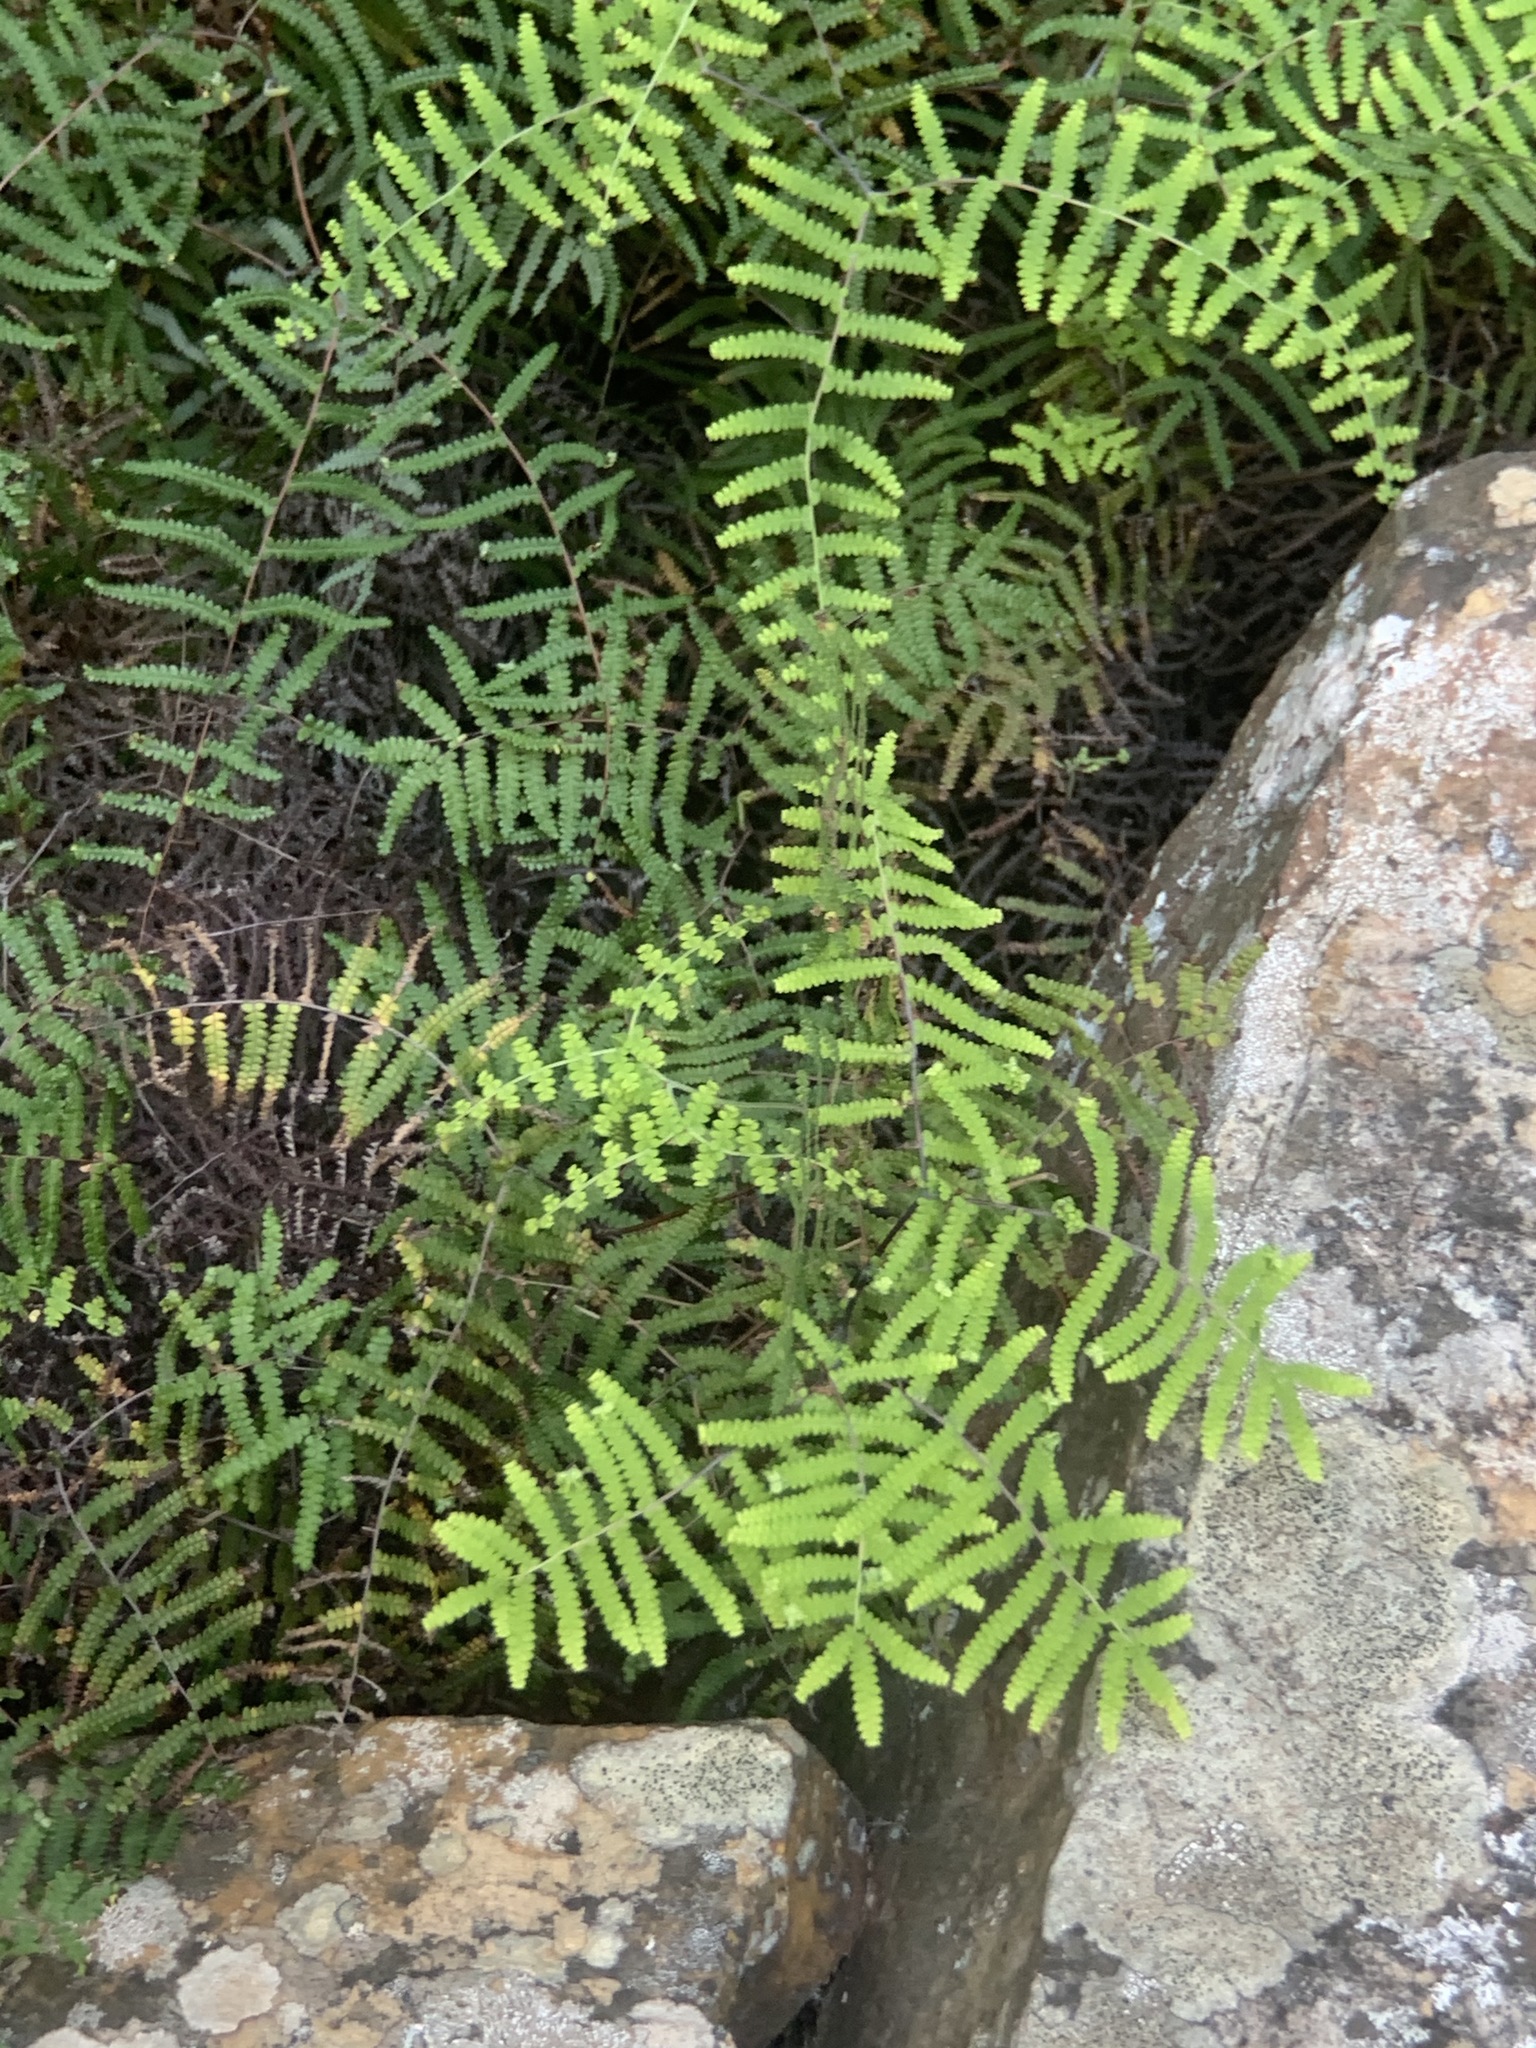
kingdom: Plantae
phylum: Tracheophyta
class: Polypodiopsida
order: Gleicheniales
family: Gleicheniaceae
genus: Gleichenia
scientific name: Gleichenia polypodioides
